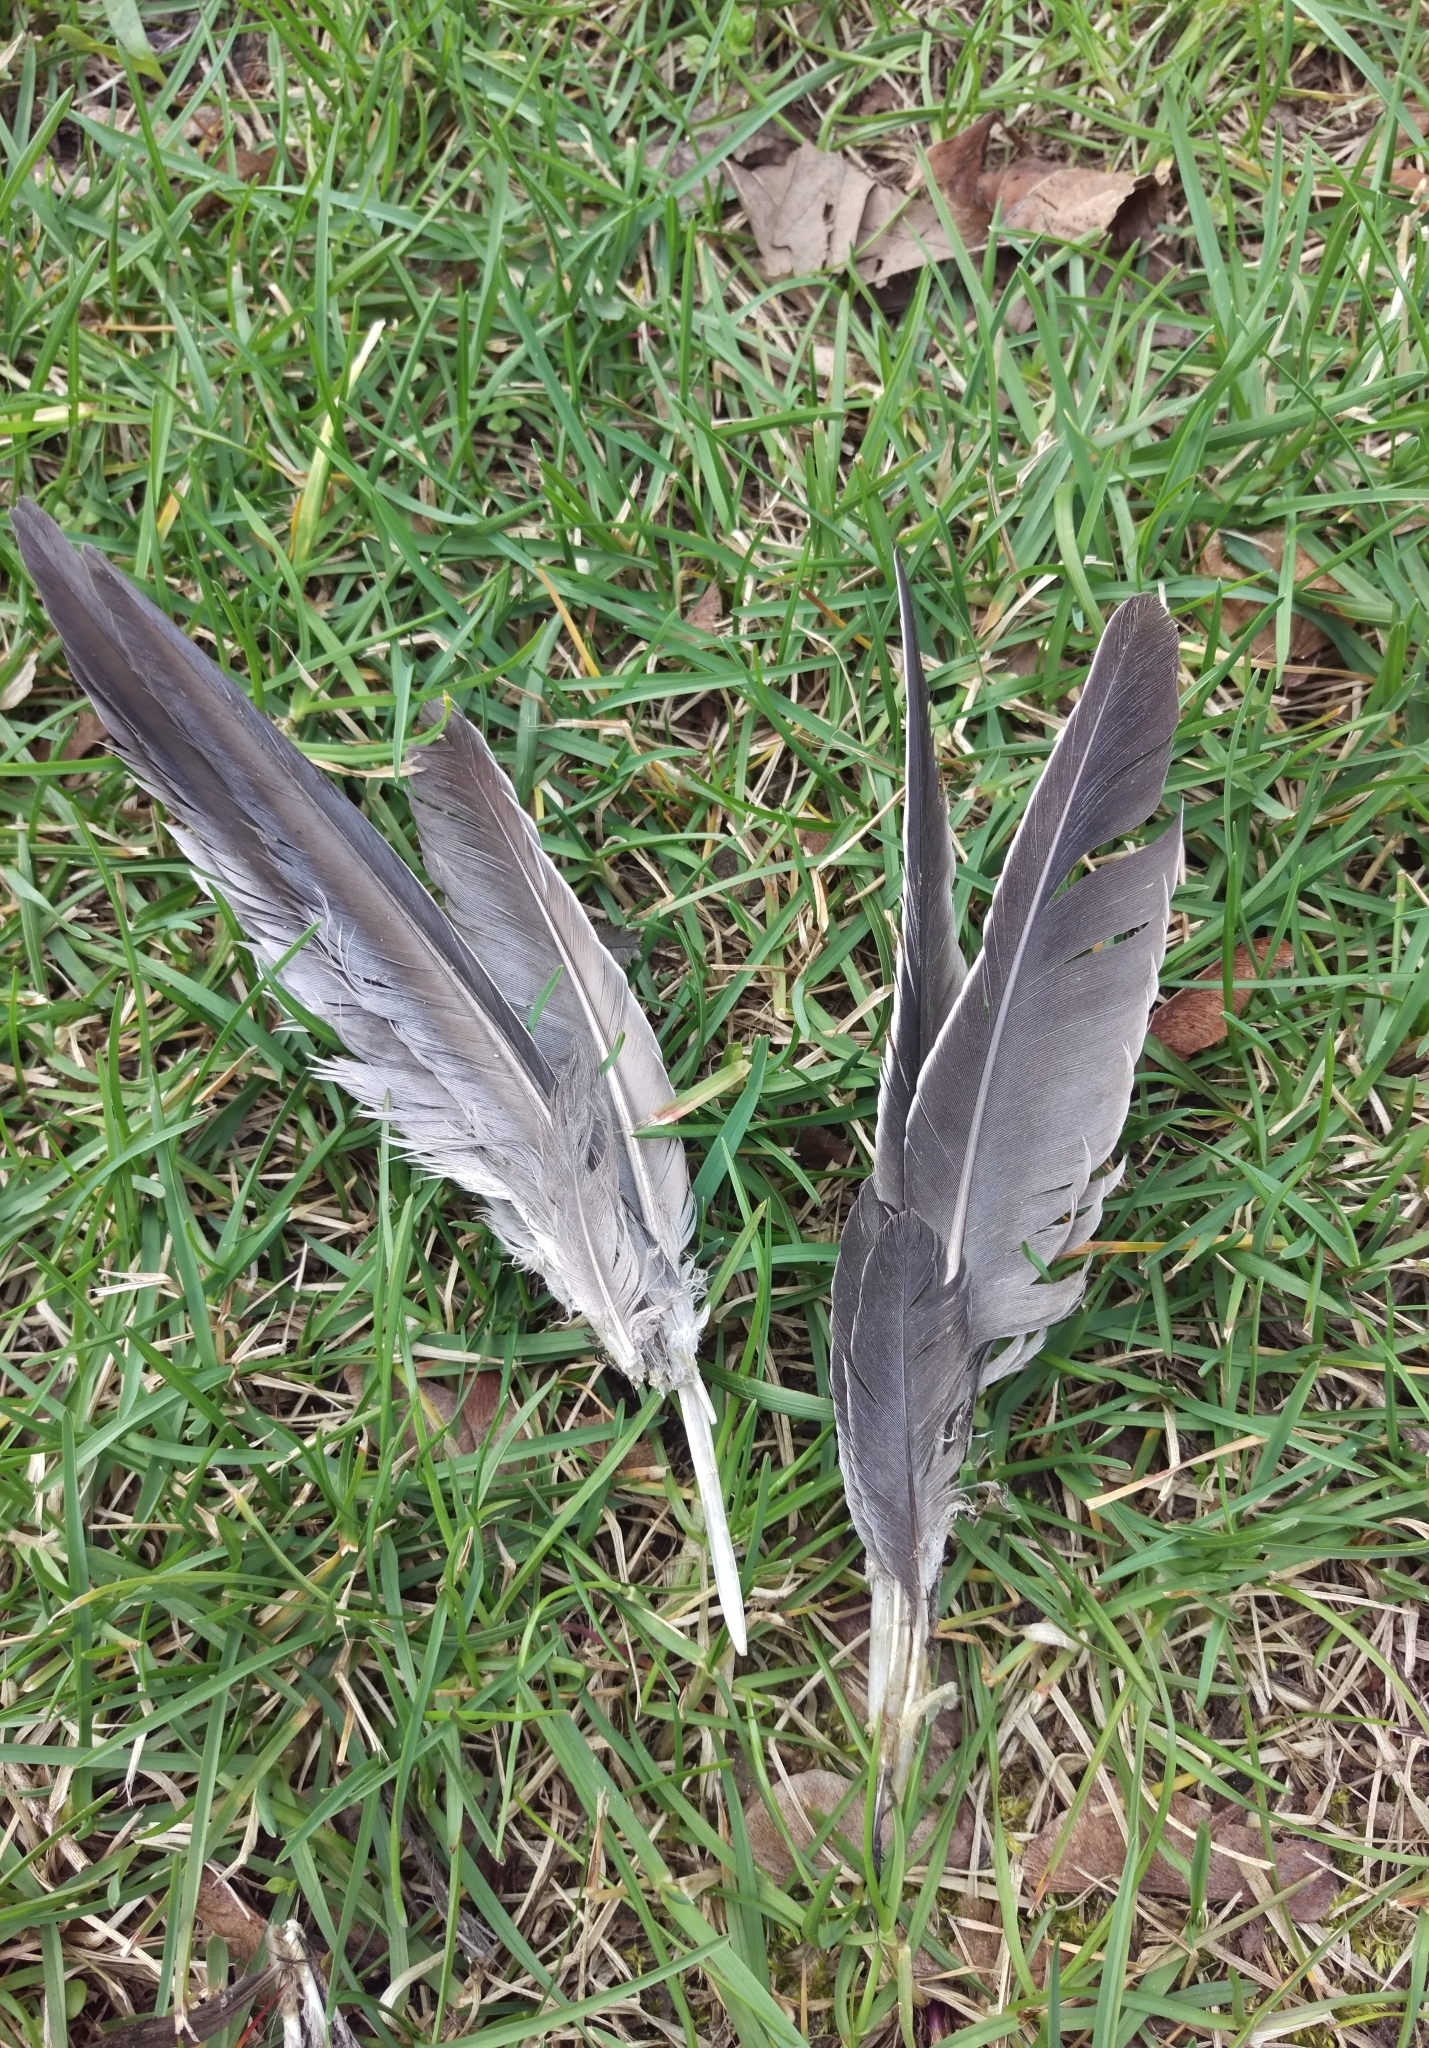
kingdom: Animalia
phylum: Chordata
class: Aves
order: Columbiformes
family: Columbidae
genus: Columba
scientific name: Columba palumbus
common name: Common wood pigeon
